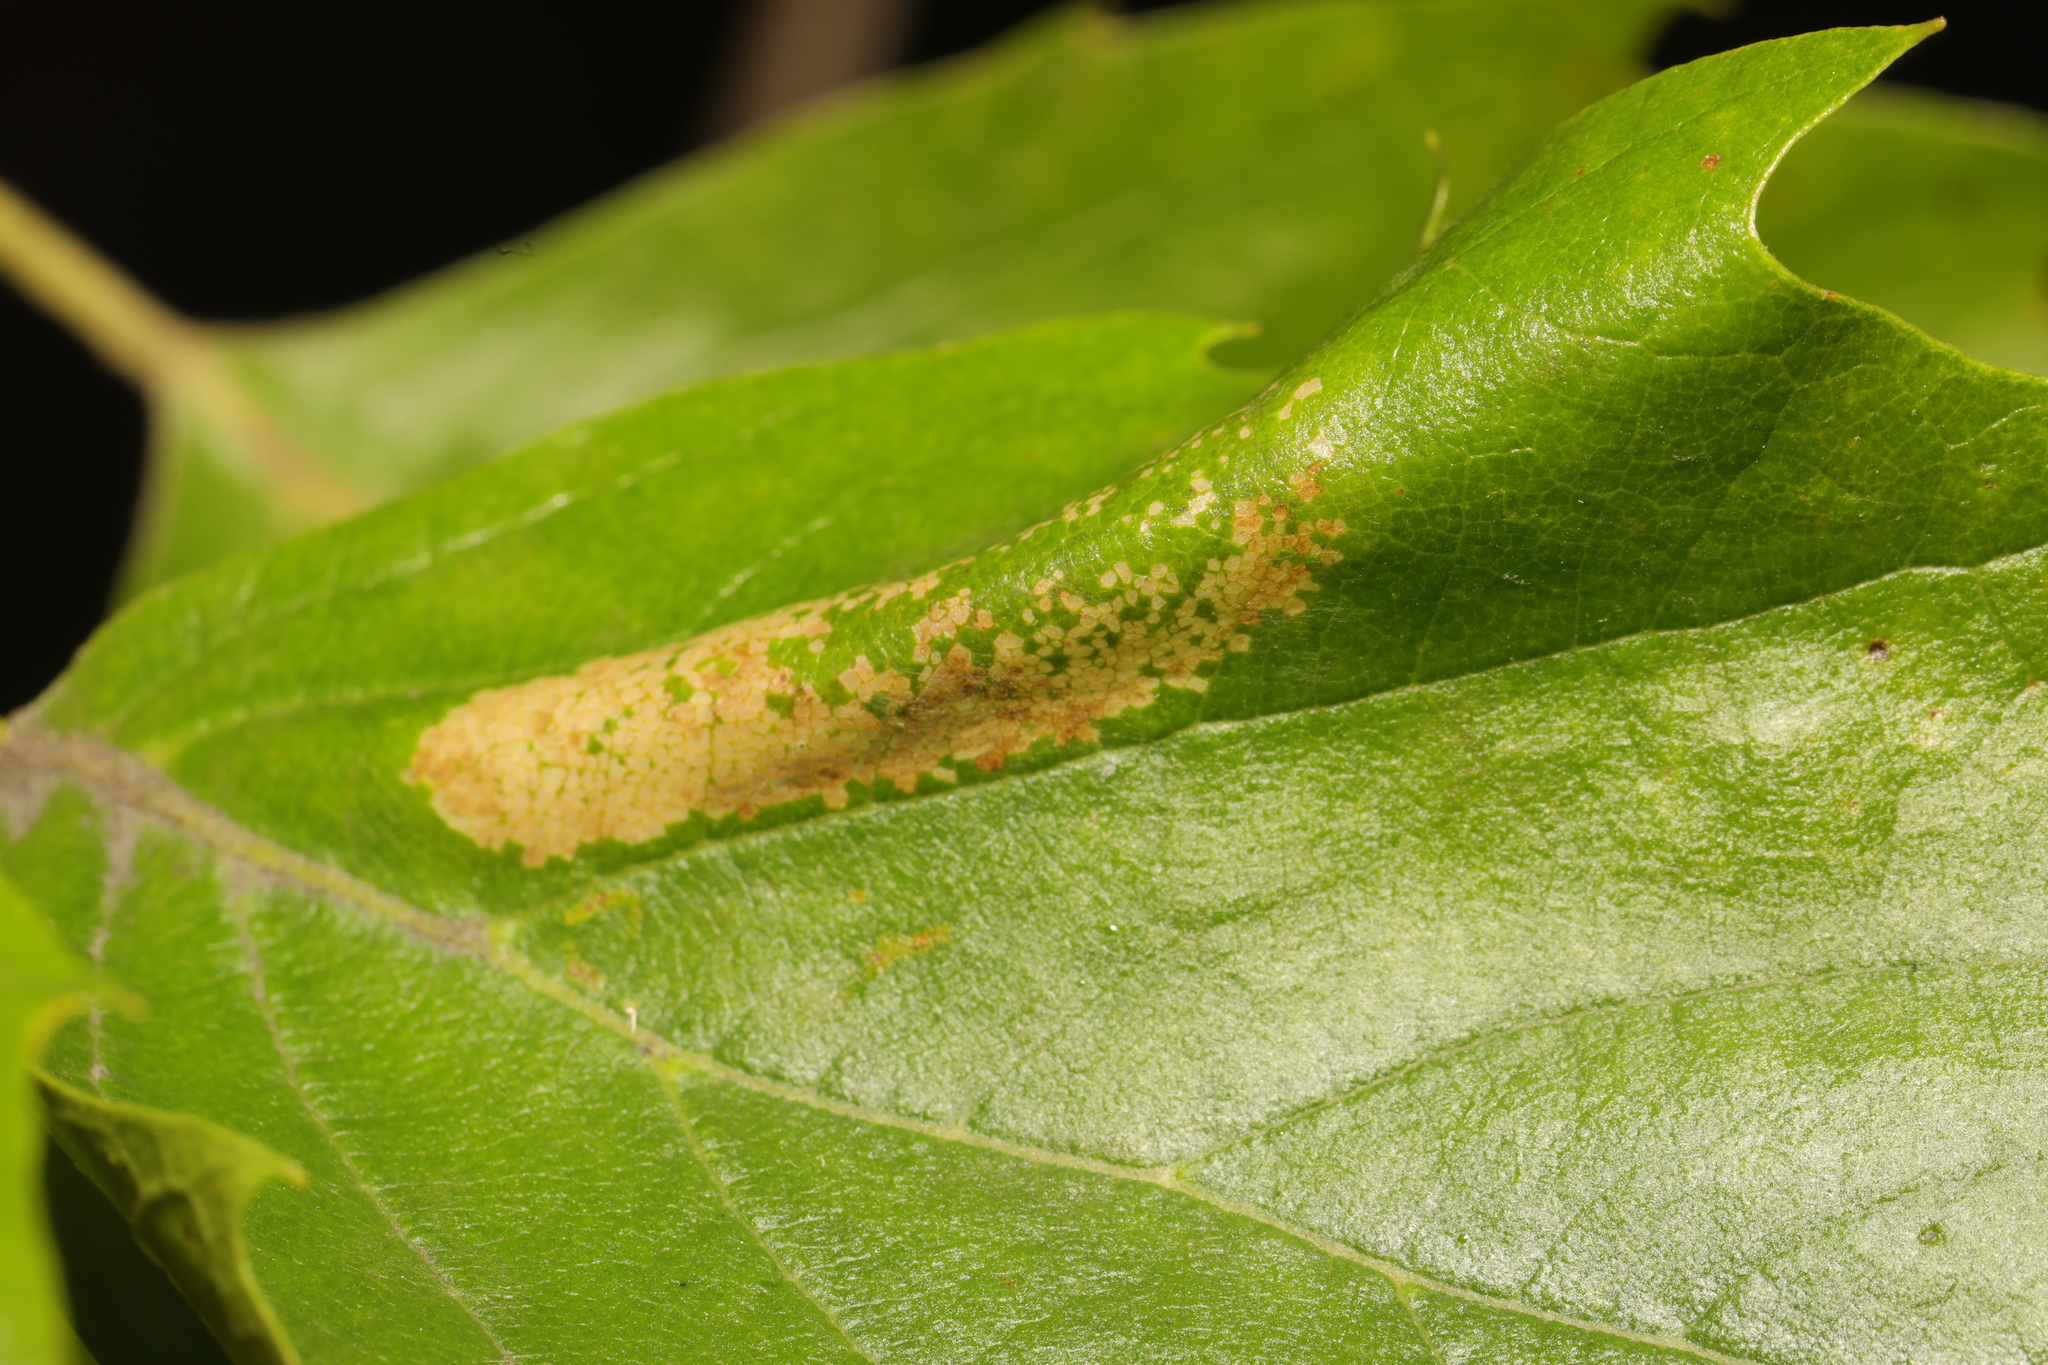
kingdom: Animalia
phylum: Arthropoda
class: Insecta
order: Lepidoptera
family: Gracillariidae
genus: Phyllonorycter
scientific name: Phyllonorycter platani
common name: London midget
